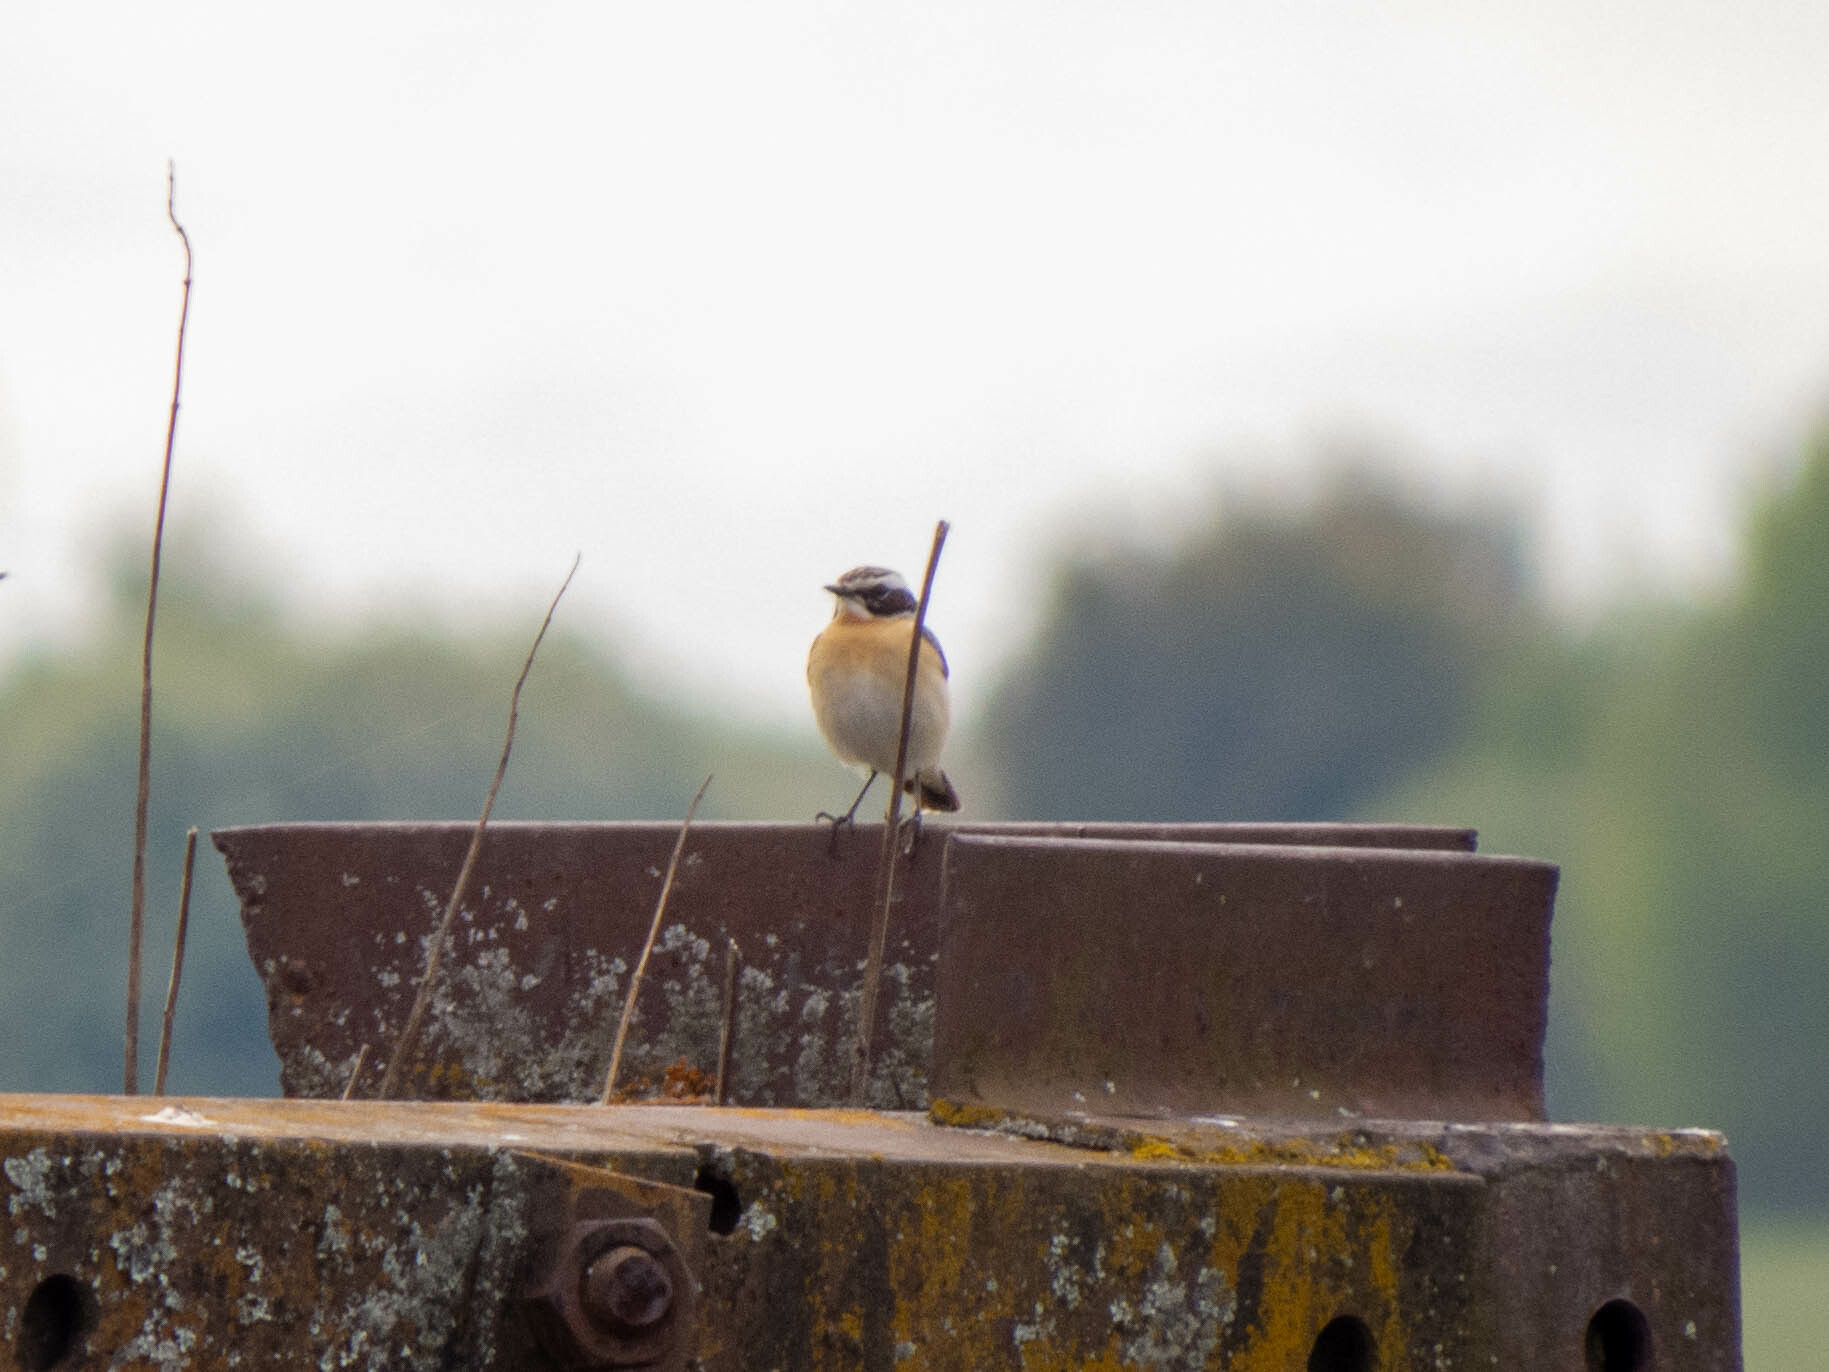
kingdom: Animalia
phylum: Chordata
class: Aves
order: Passeriformes
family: Muscicapidae
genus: Saxicola
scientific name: Saxicola rubetra
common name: Whinchat
